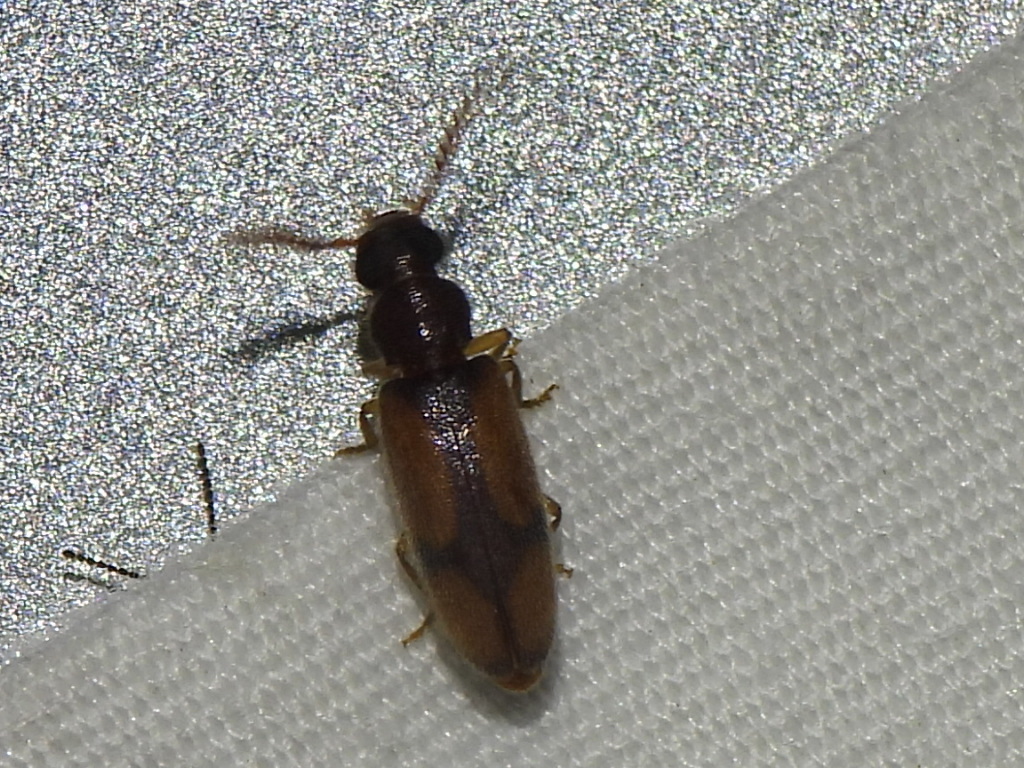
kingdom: Animalia
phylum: Arthropoda
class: Insecta
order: Coleoptera
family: Oedemeridae
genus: Polypria
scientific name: Polypria
